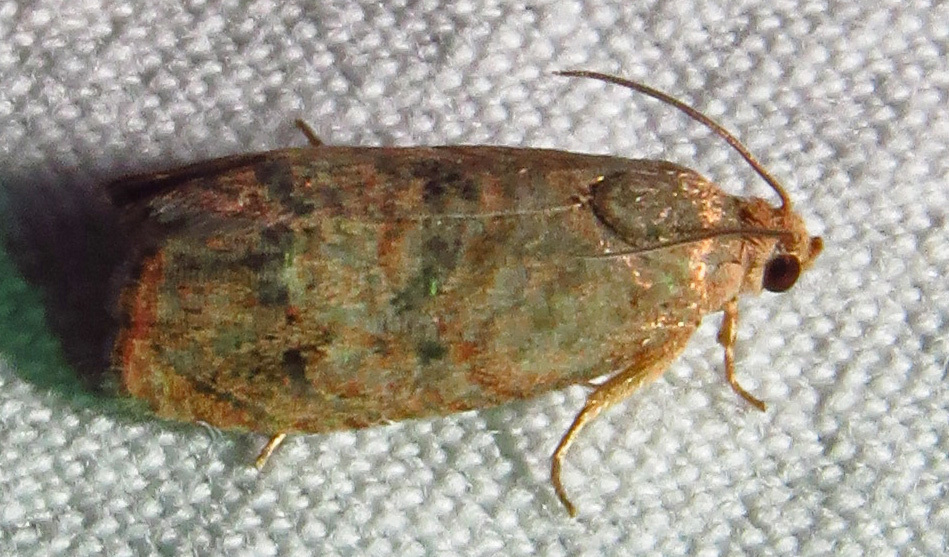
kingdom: Animalia
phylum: Arthropoda
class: Insecta
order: Lepidoptera
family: Tortricidae
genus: Cydia
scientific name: Cydia latiferreana
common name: Filbertworm moth
